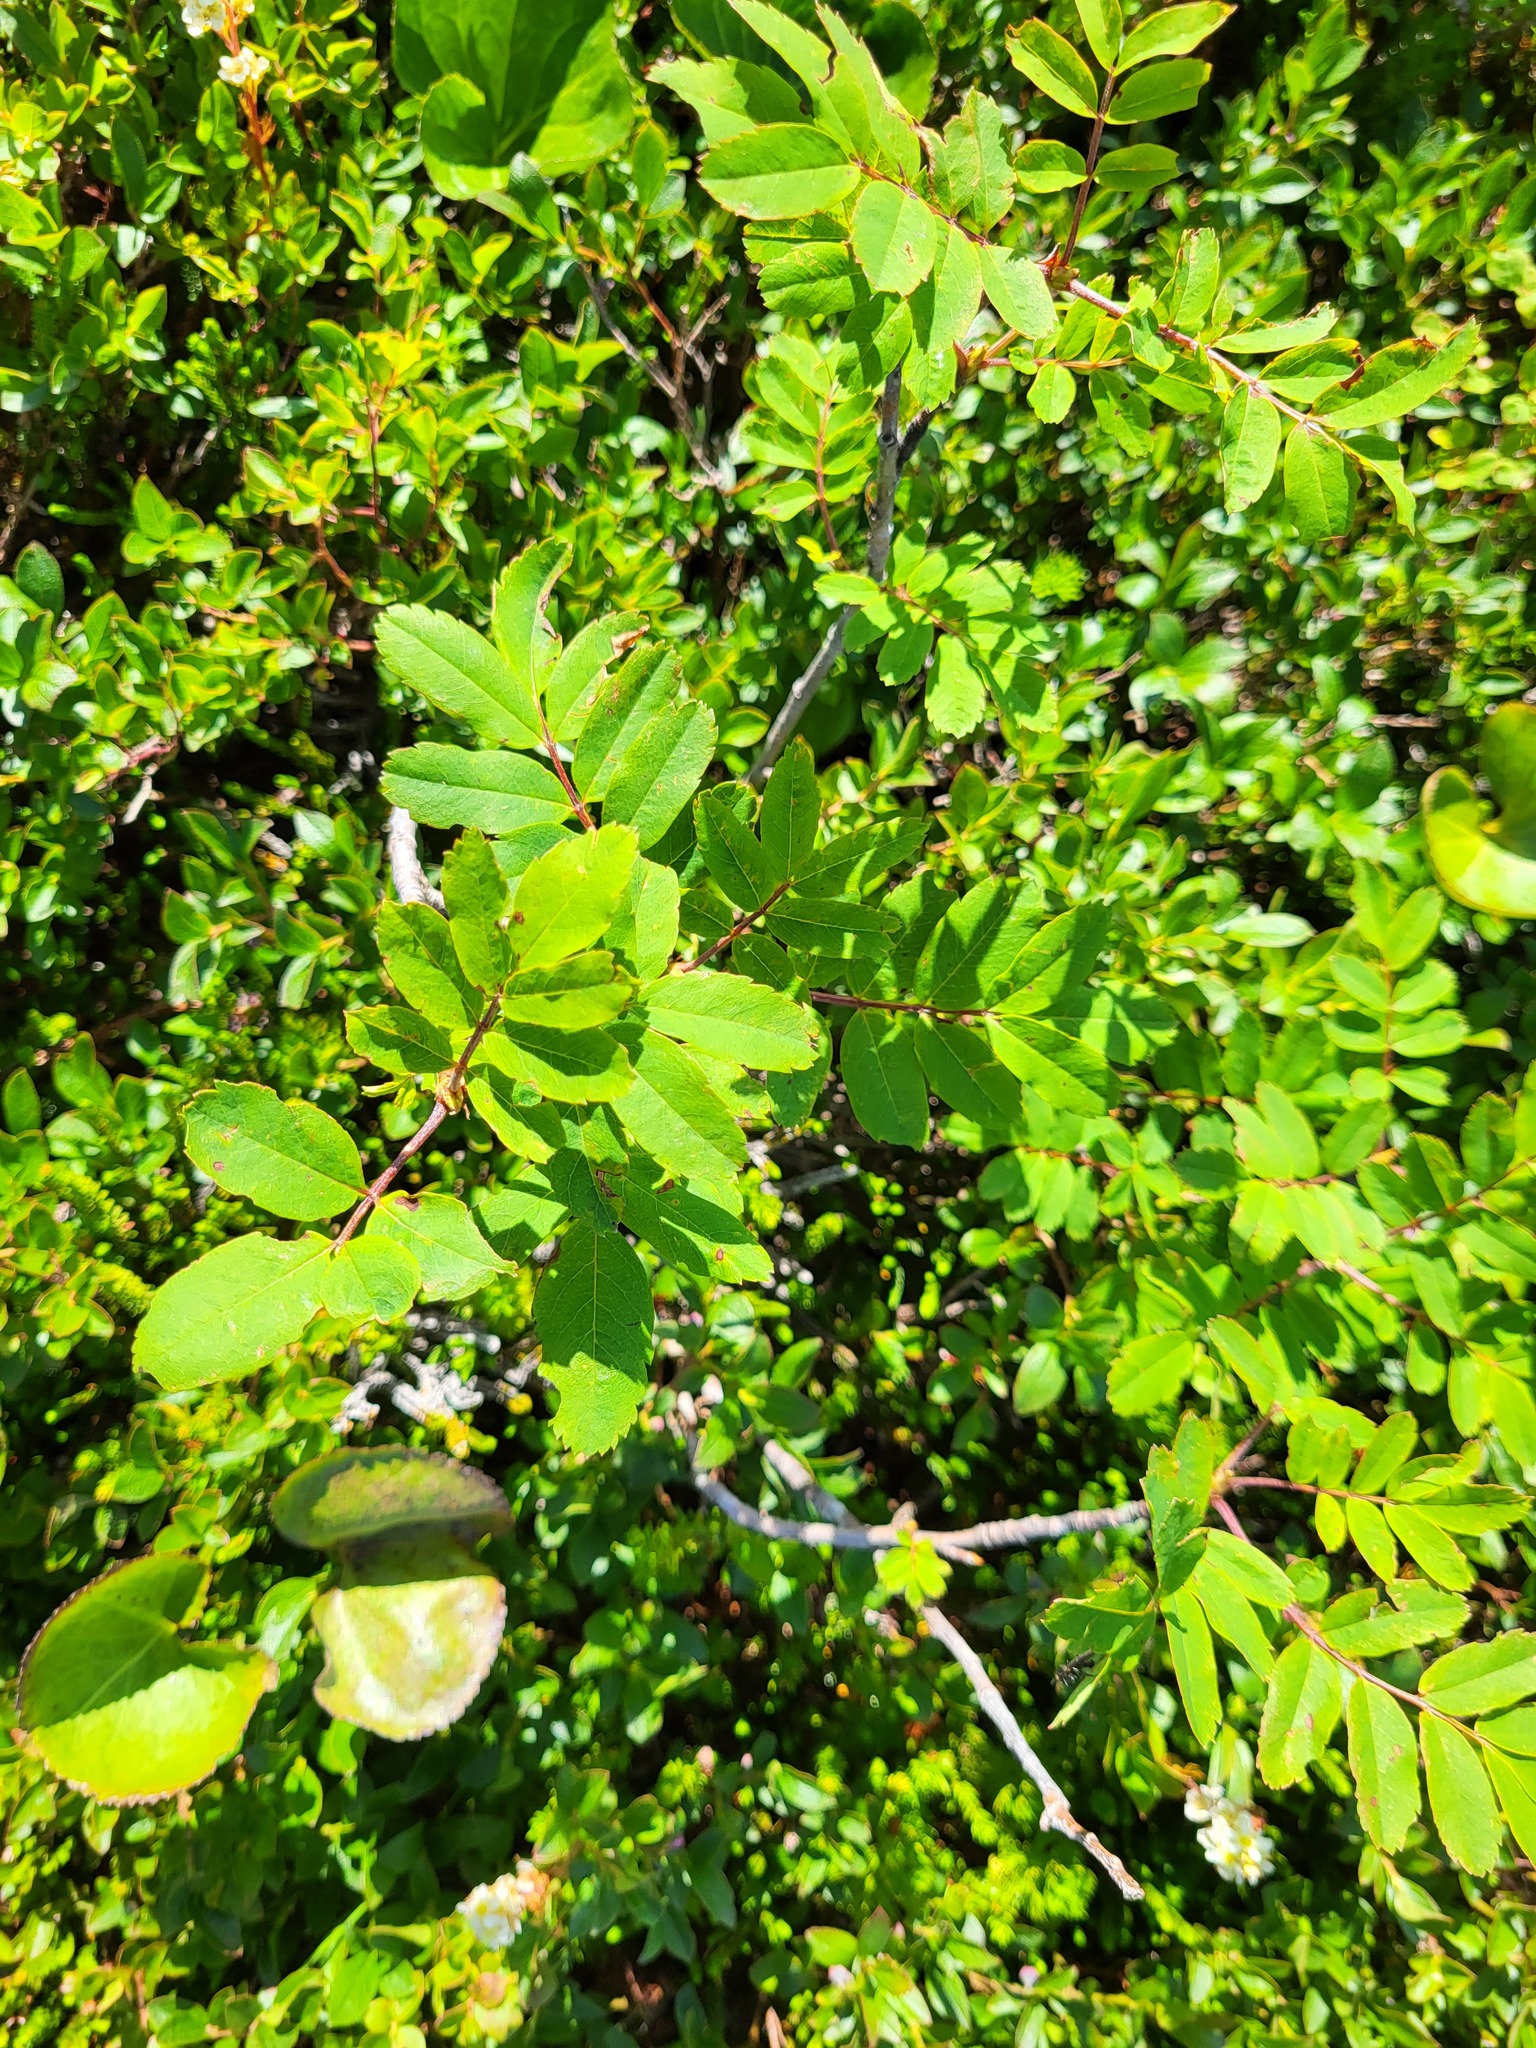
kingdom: Plantae
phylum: Tracheophyta
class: Magnoliopsida
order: Rosales
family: Rosaceae
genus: Sorbus
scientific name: Sorbus sitchensis
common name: Sitka mountain-ash
